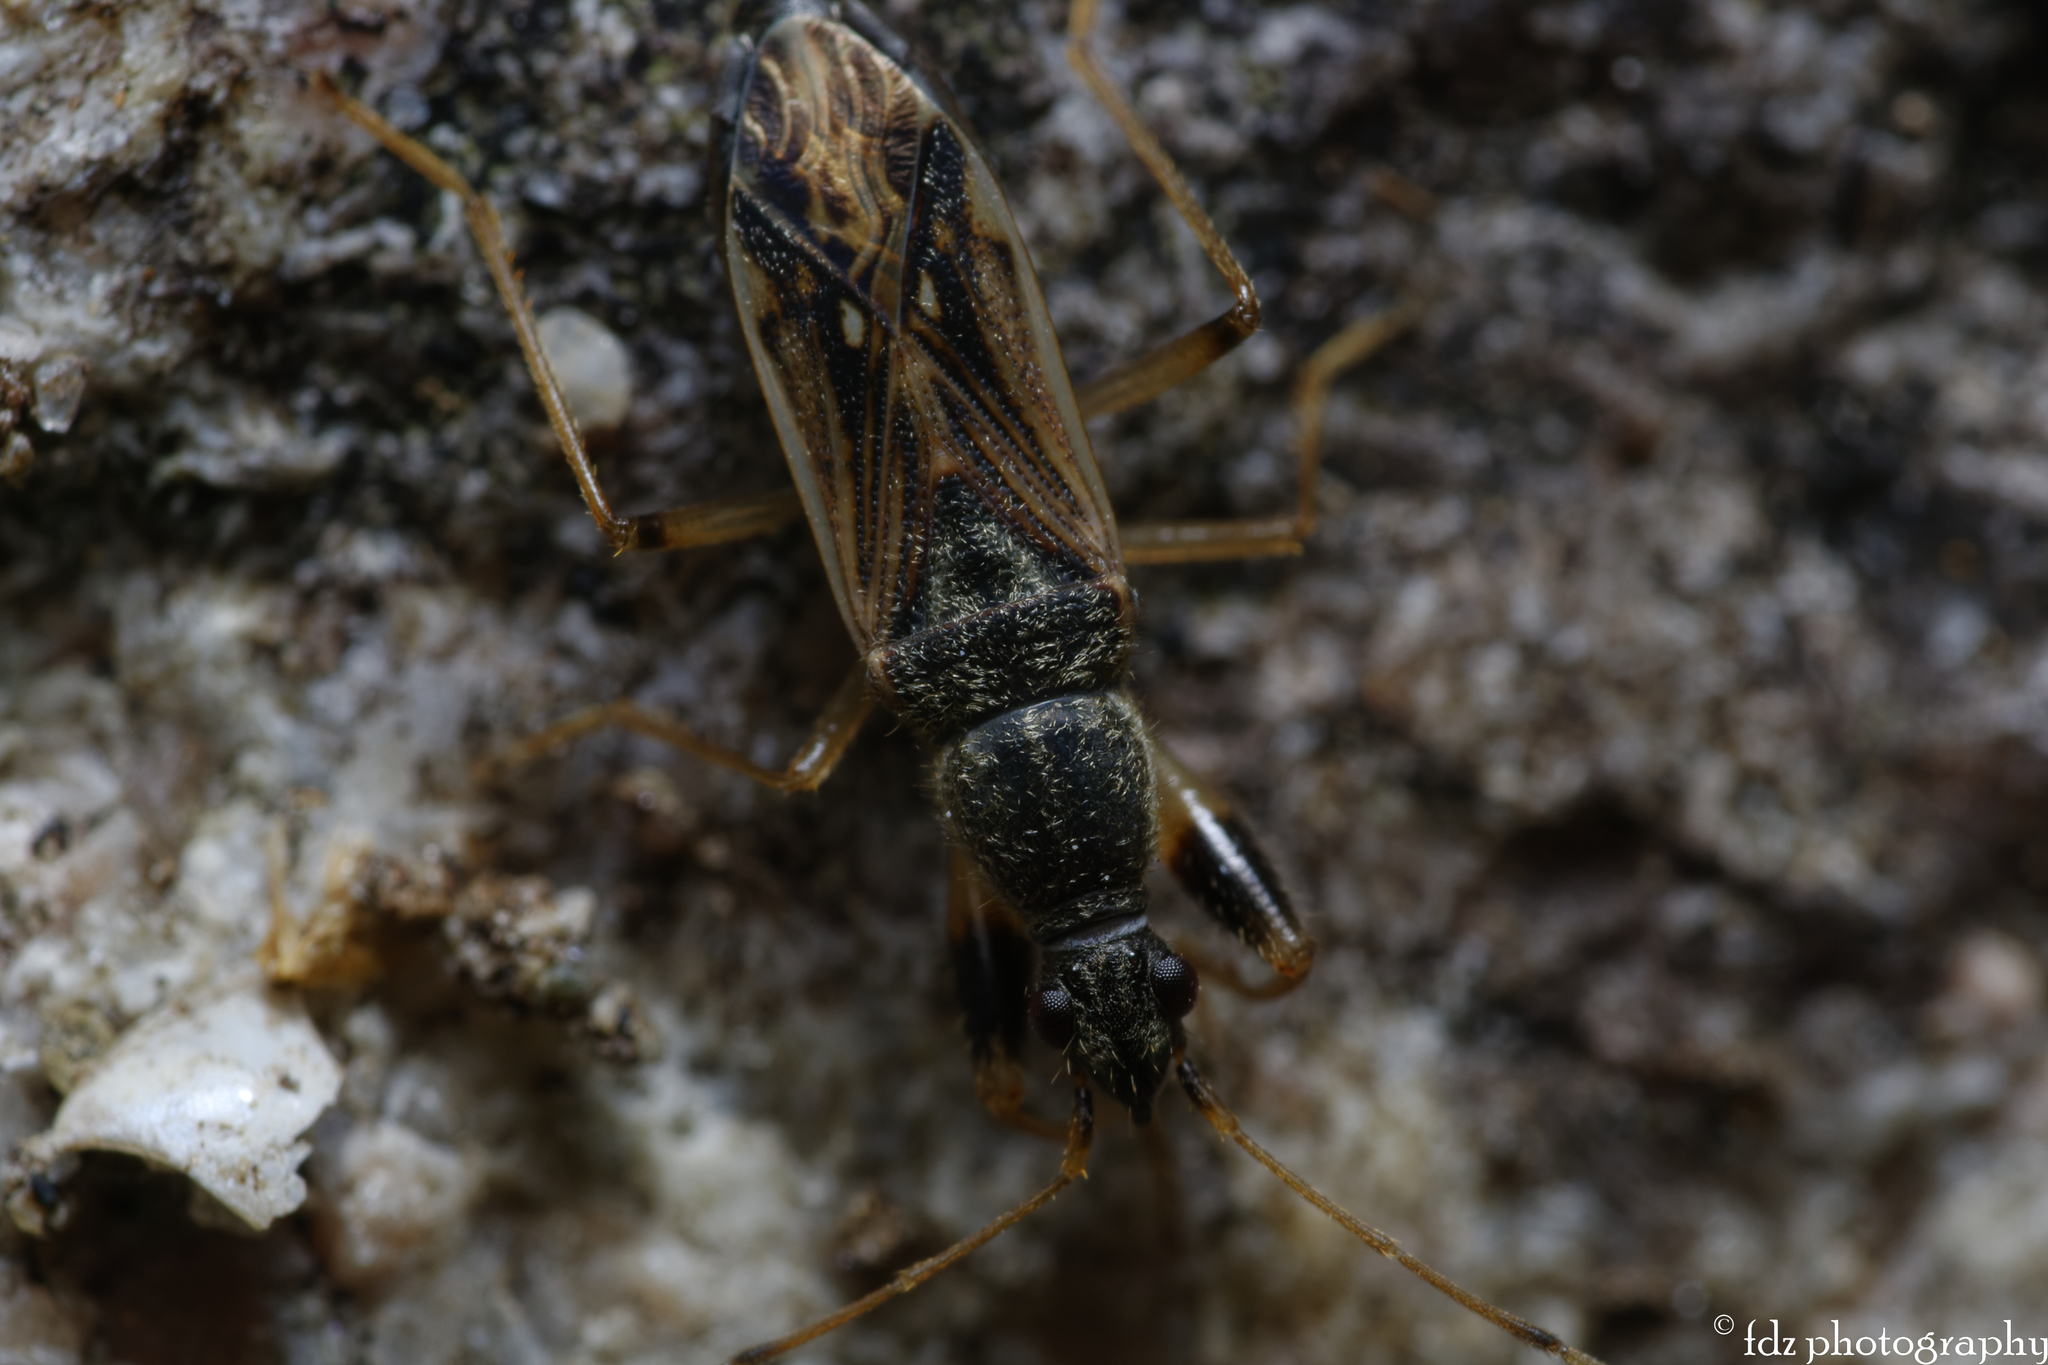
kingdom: Animalia
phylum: Arthropoda
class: Insecta
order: Hemiptera
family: Rhyparochromidae
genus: Paraparomius
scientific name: Paraparomius leptopoides
